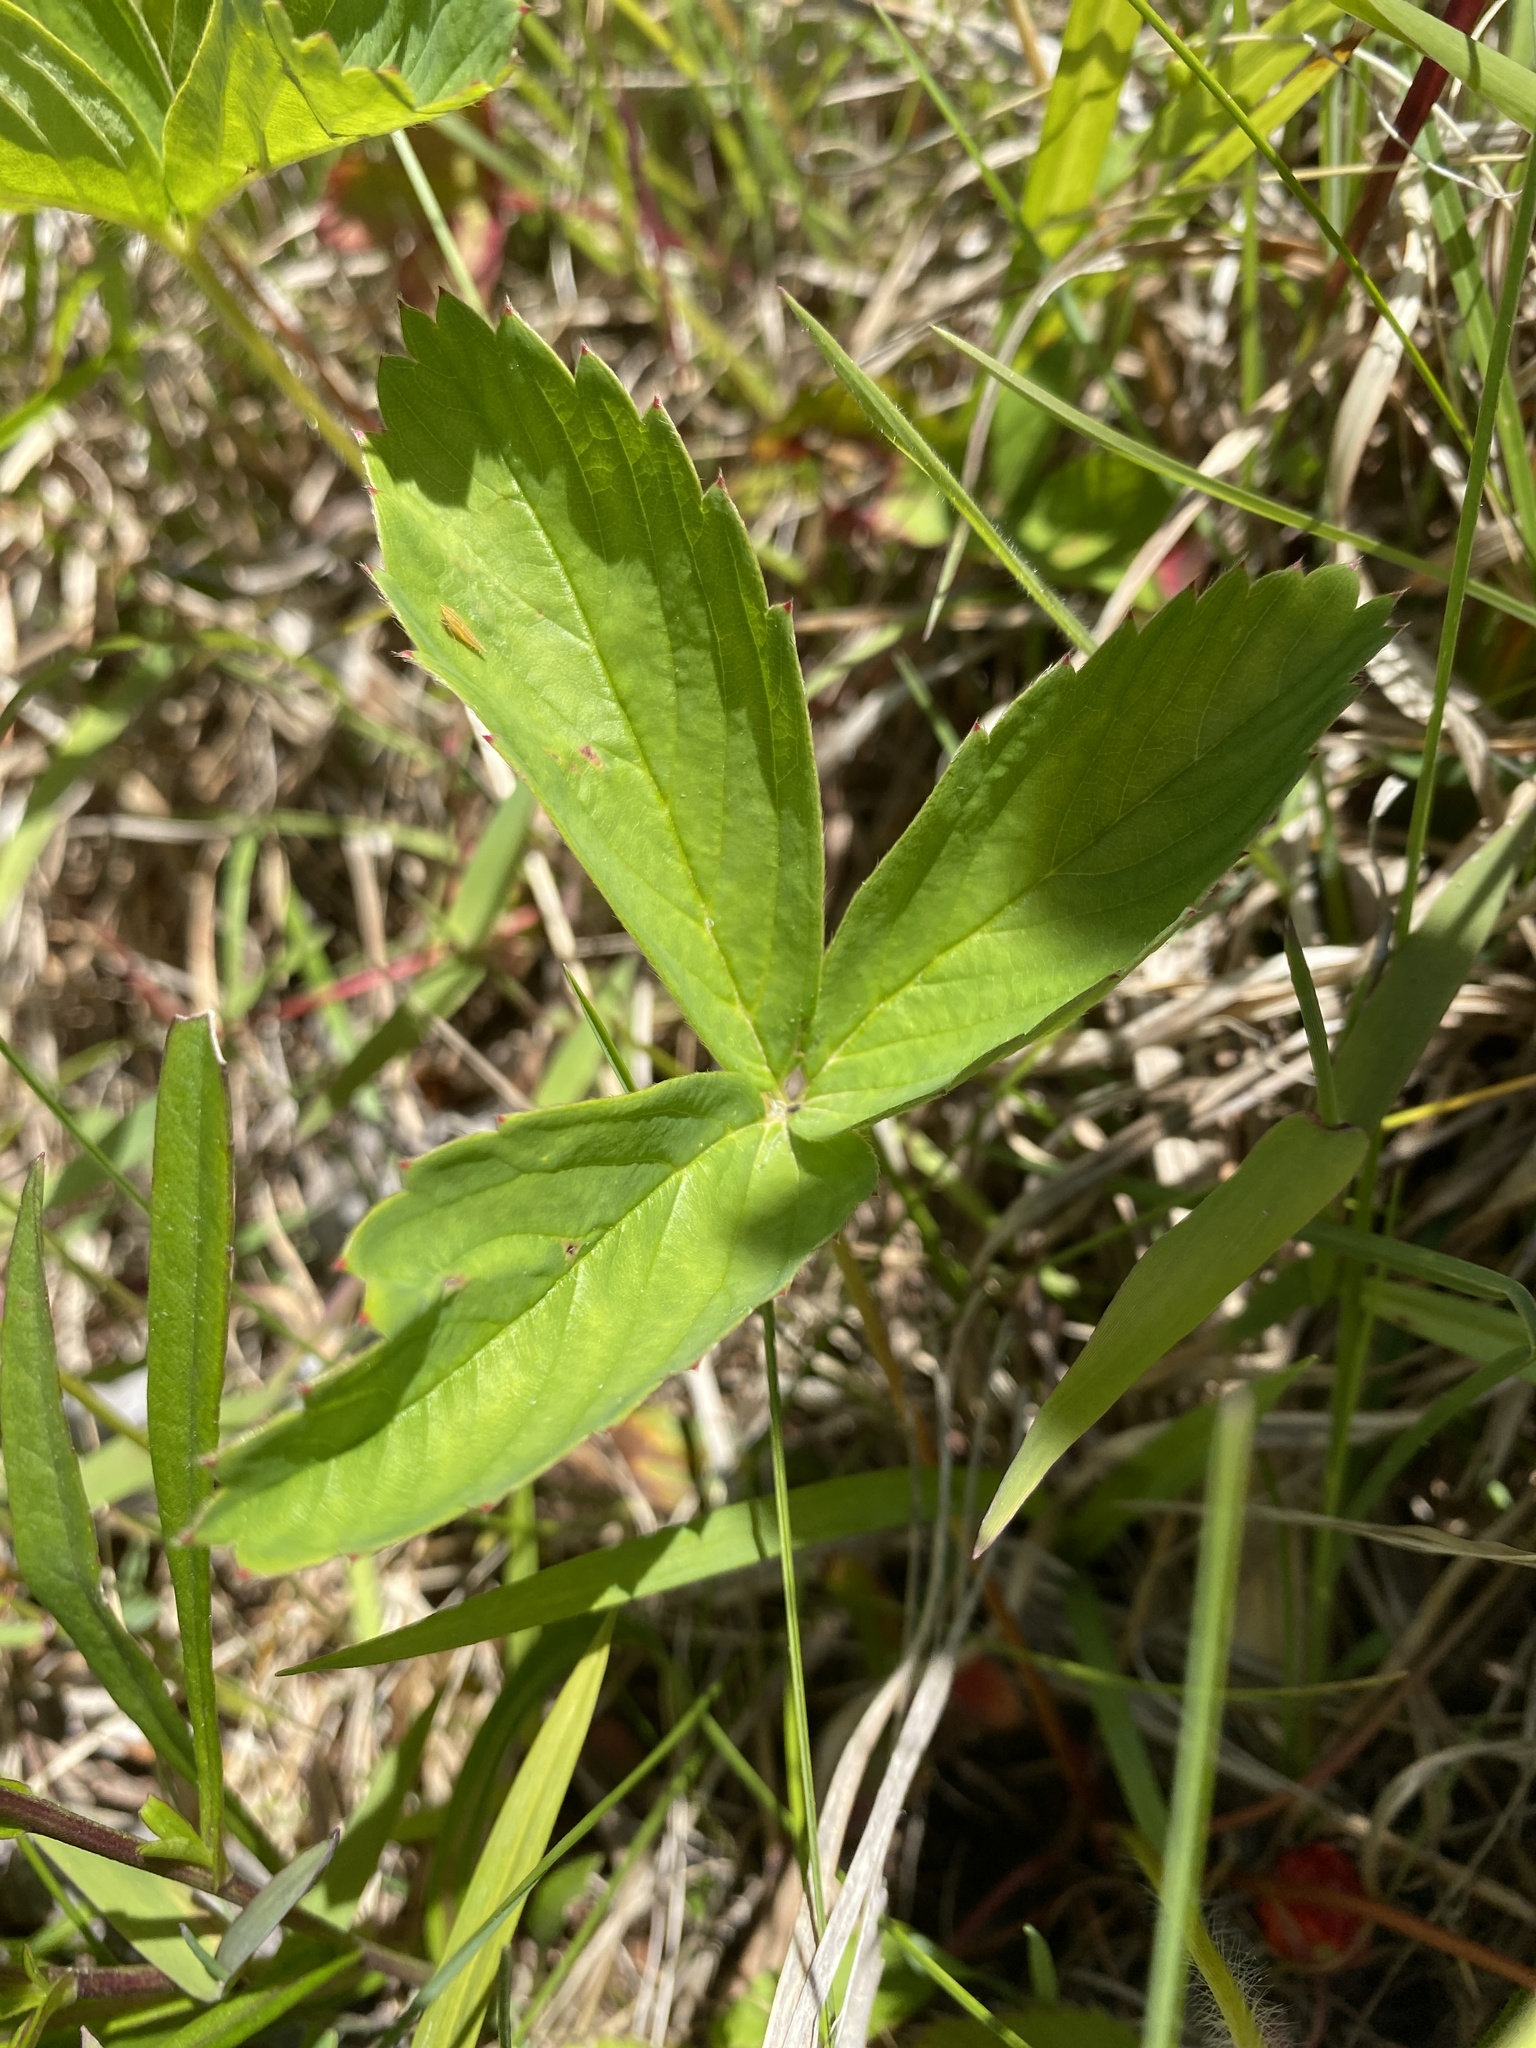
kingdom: Plantae
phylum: Tracheophyta
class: Magnoliopsida
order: Rosales
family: Rosaceae
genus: Fragaria
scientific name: Fragaria virginiana
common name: Thickleaved wild strawberry
